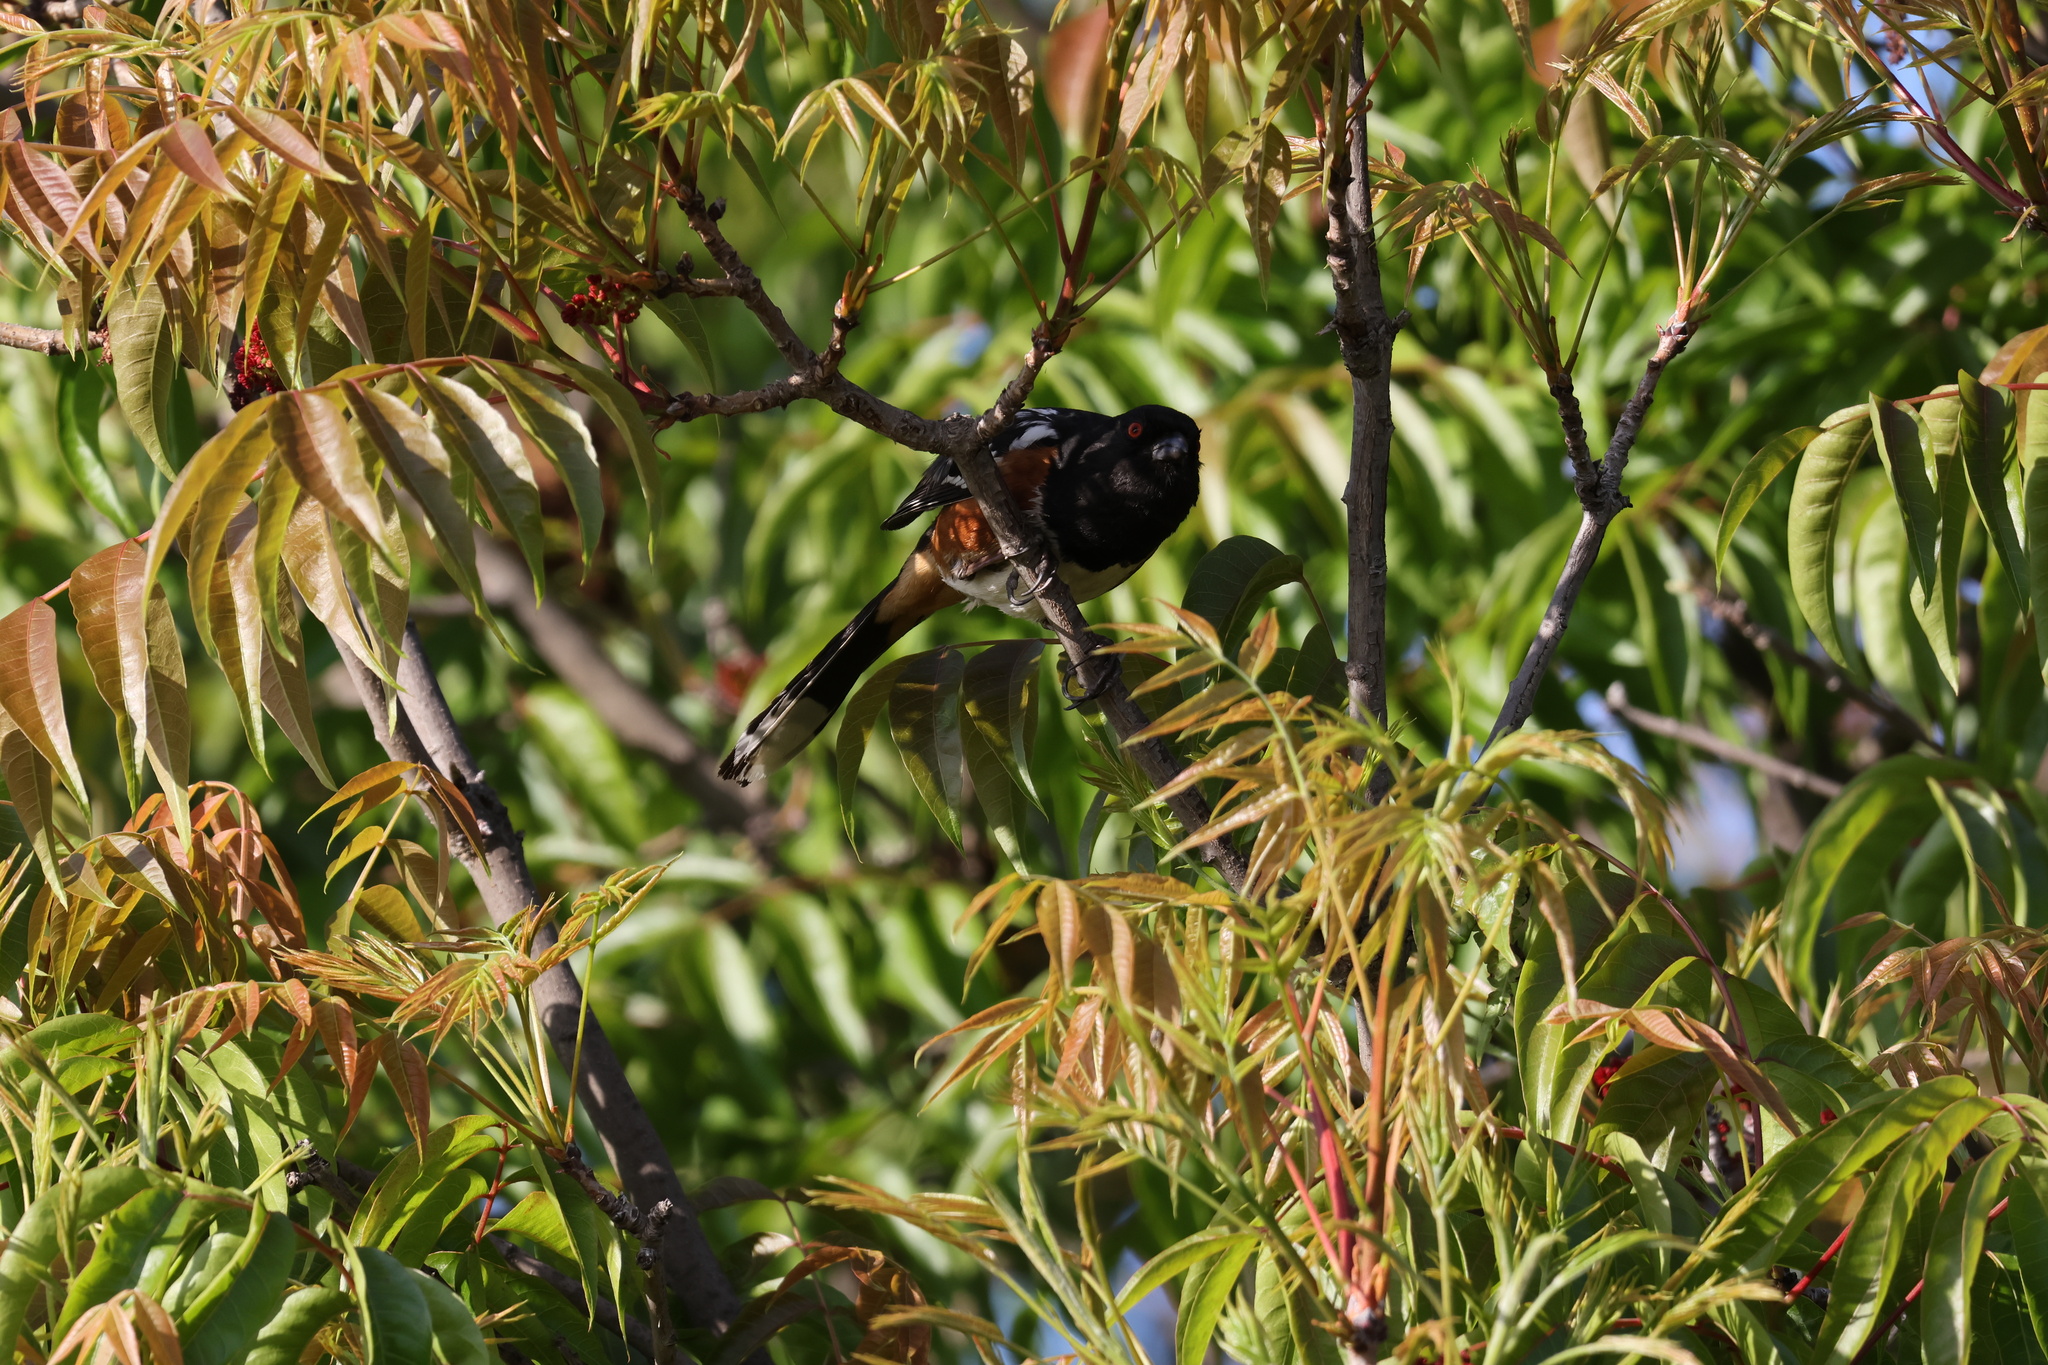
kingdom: Animalia
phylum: Chordata
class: Aves
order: Passeriformes
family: Passerellidae
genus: Pipilo
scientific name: Pipilo maculatus
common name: Spotted towhee
